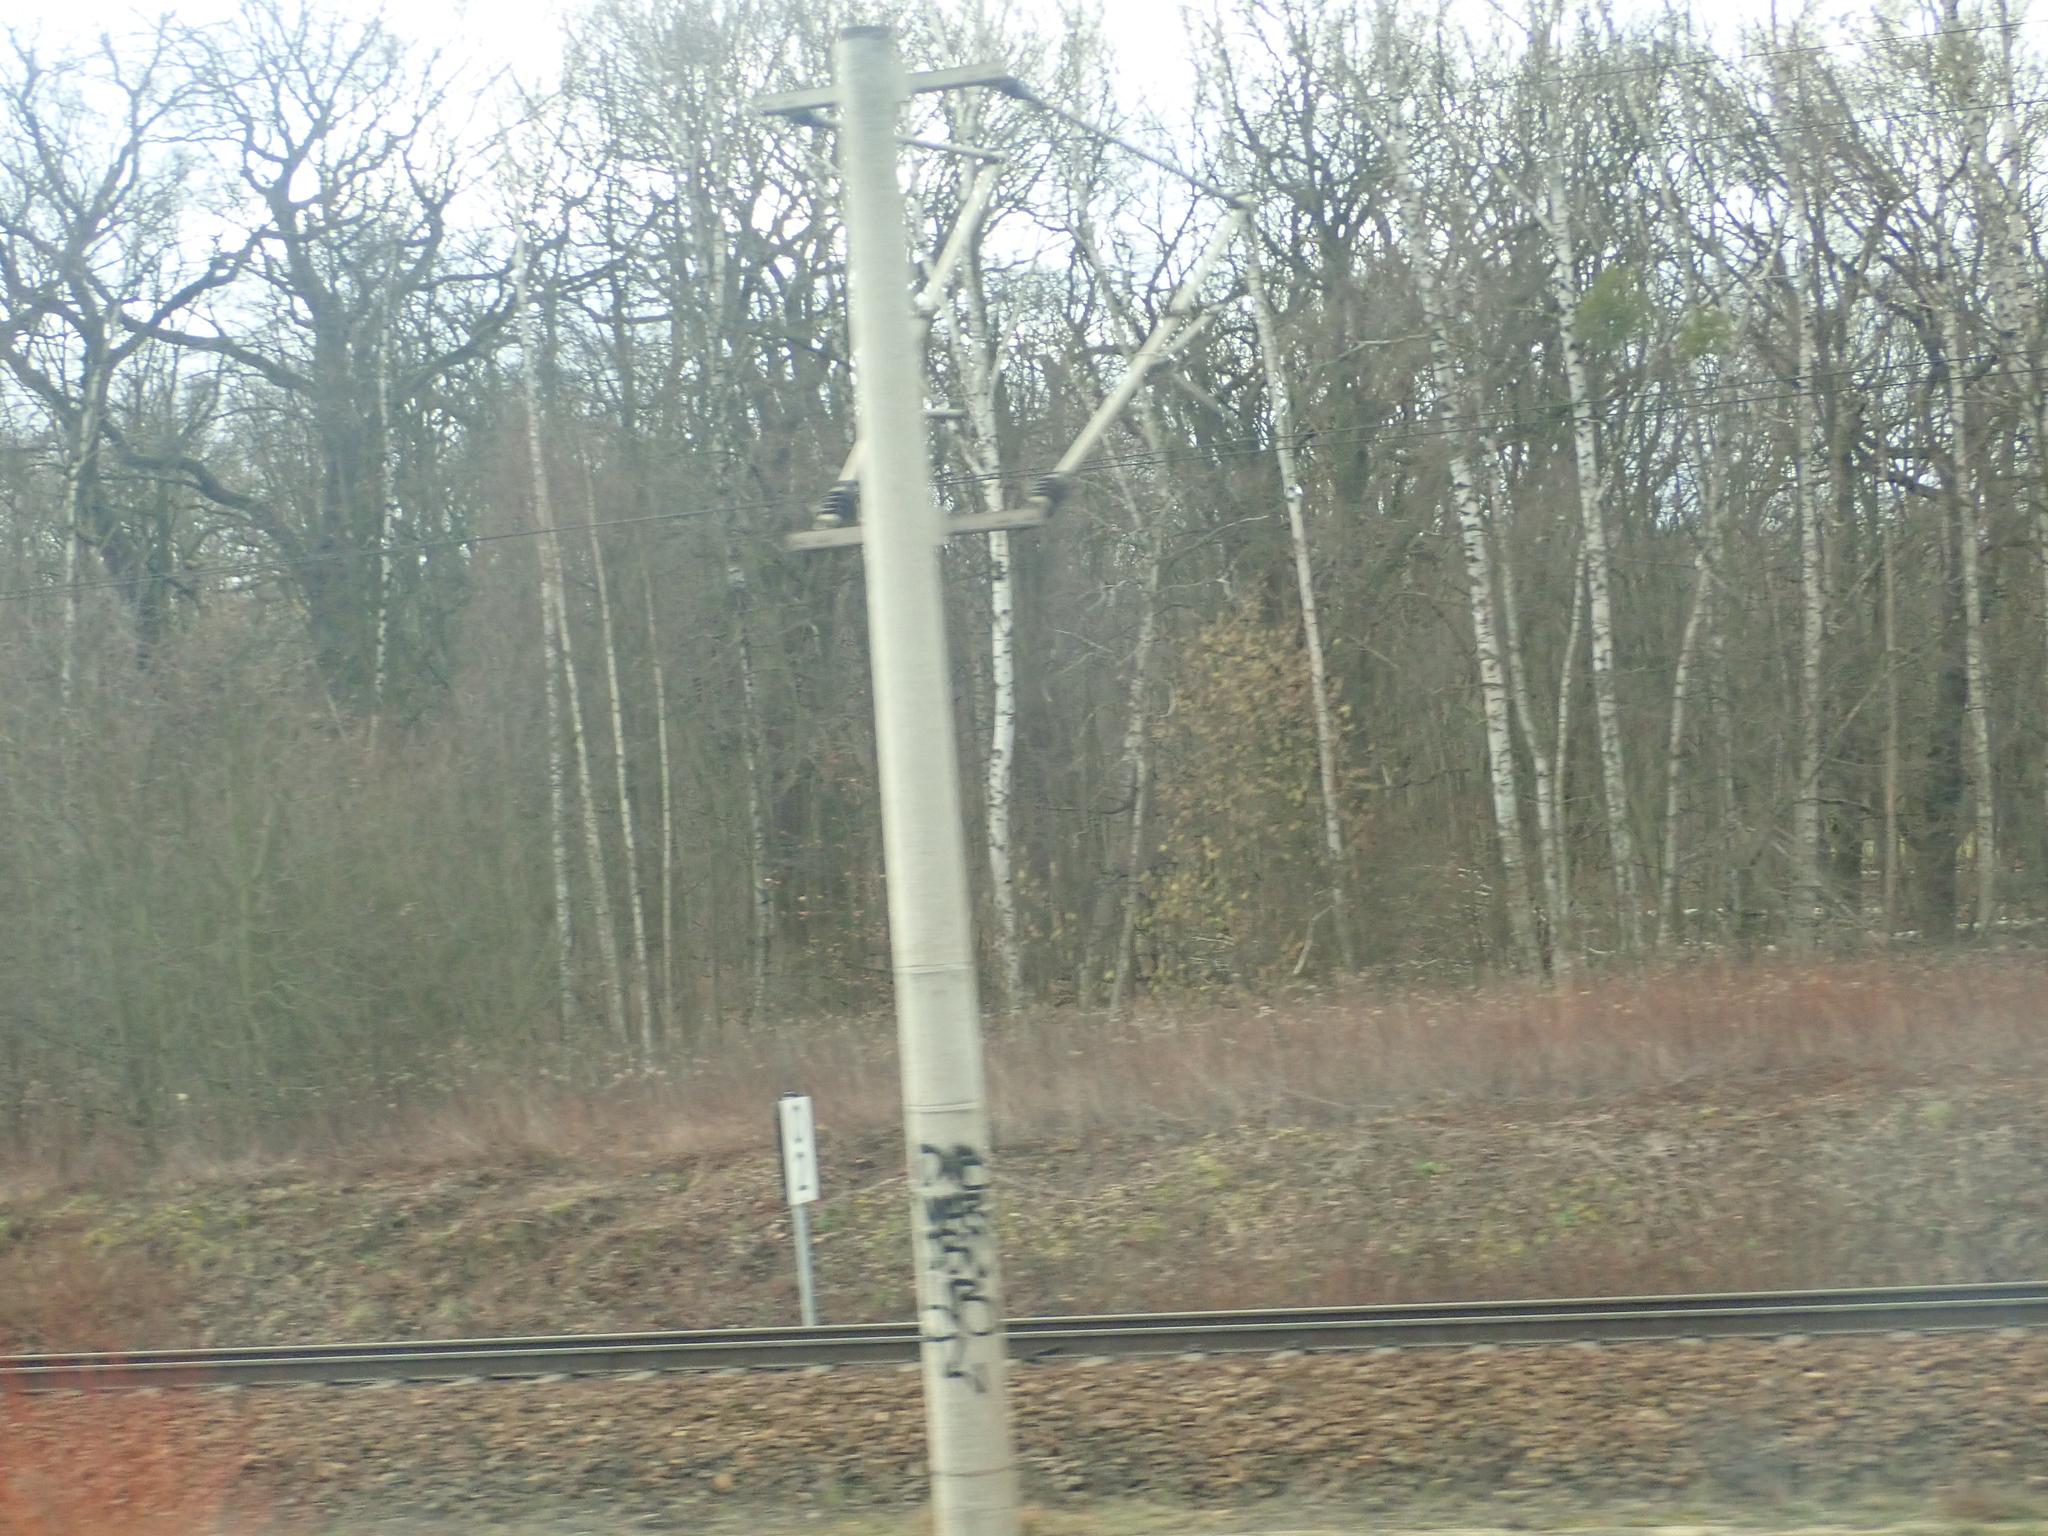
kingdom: Plantae
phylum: Tracheophyta
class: Magnoliopsida
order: Fagales
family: Betulaceae
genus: Betula
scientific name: Betula pendula
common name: Silver birch
